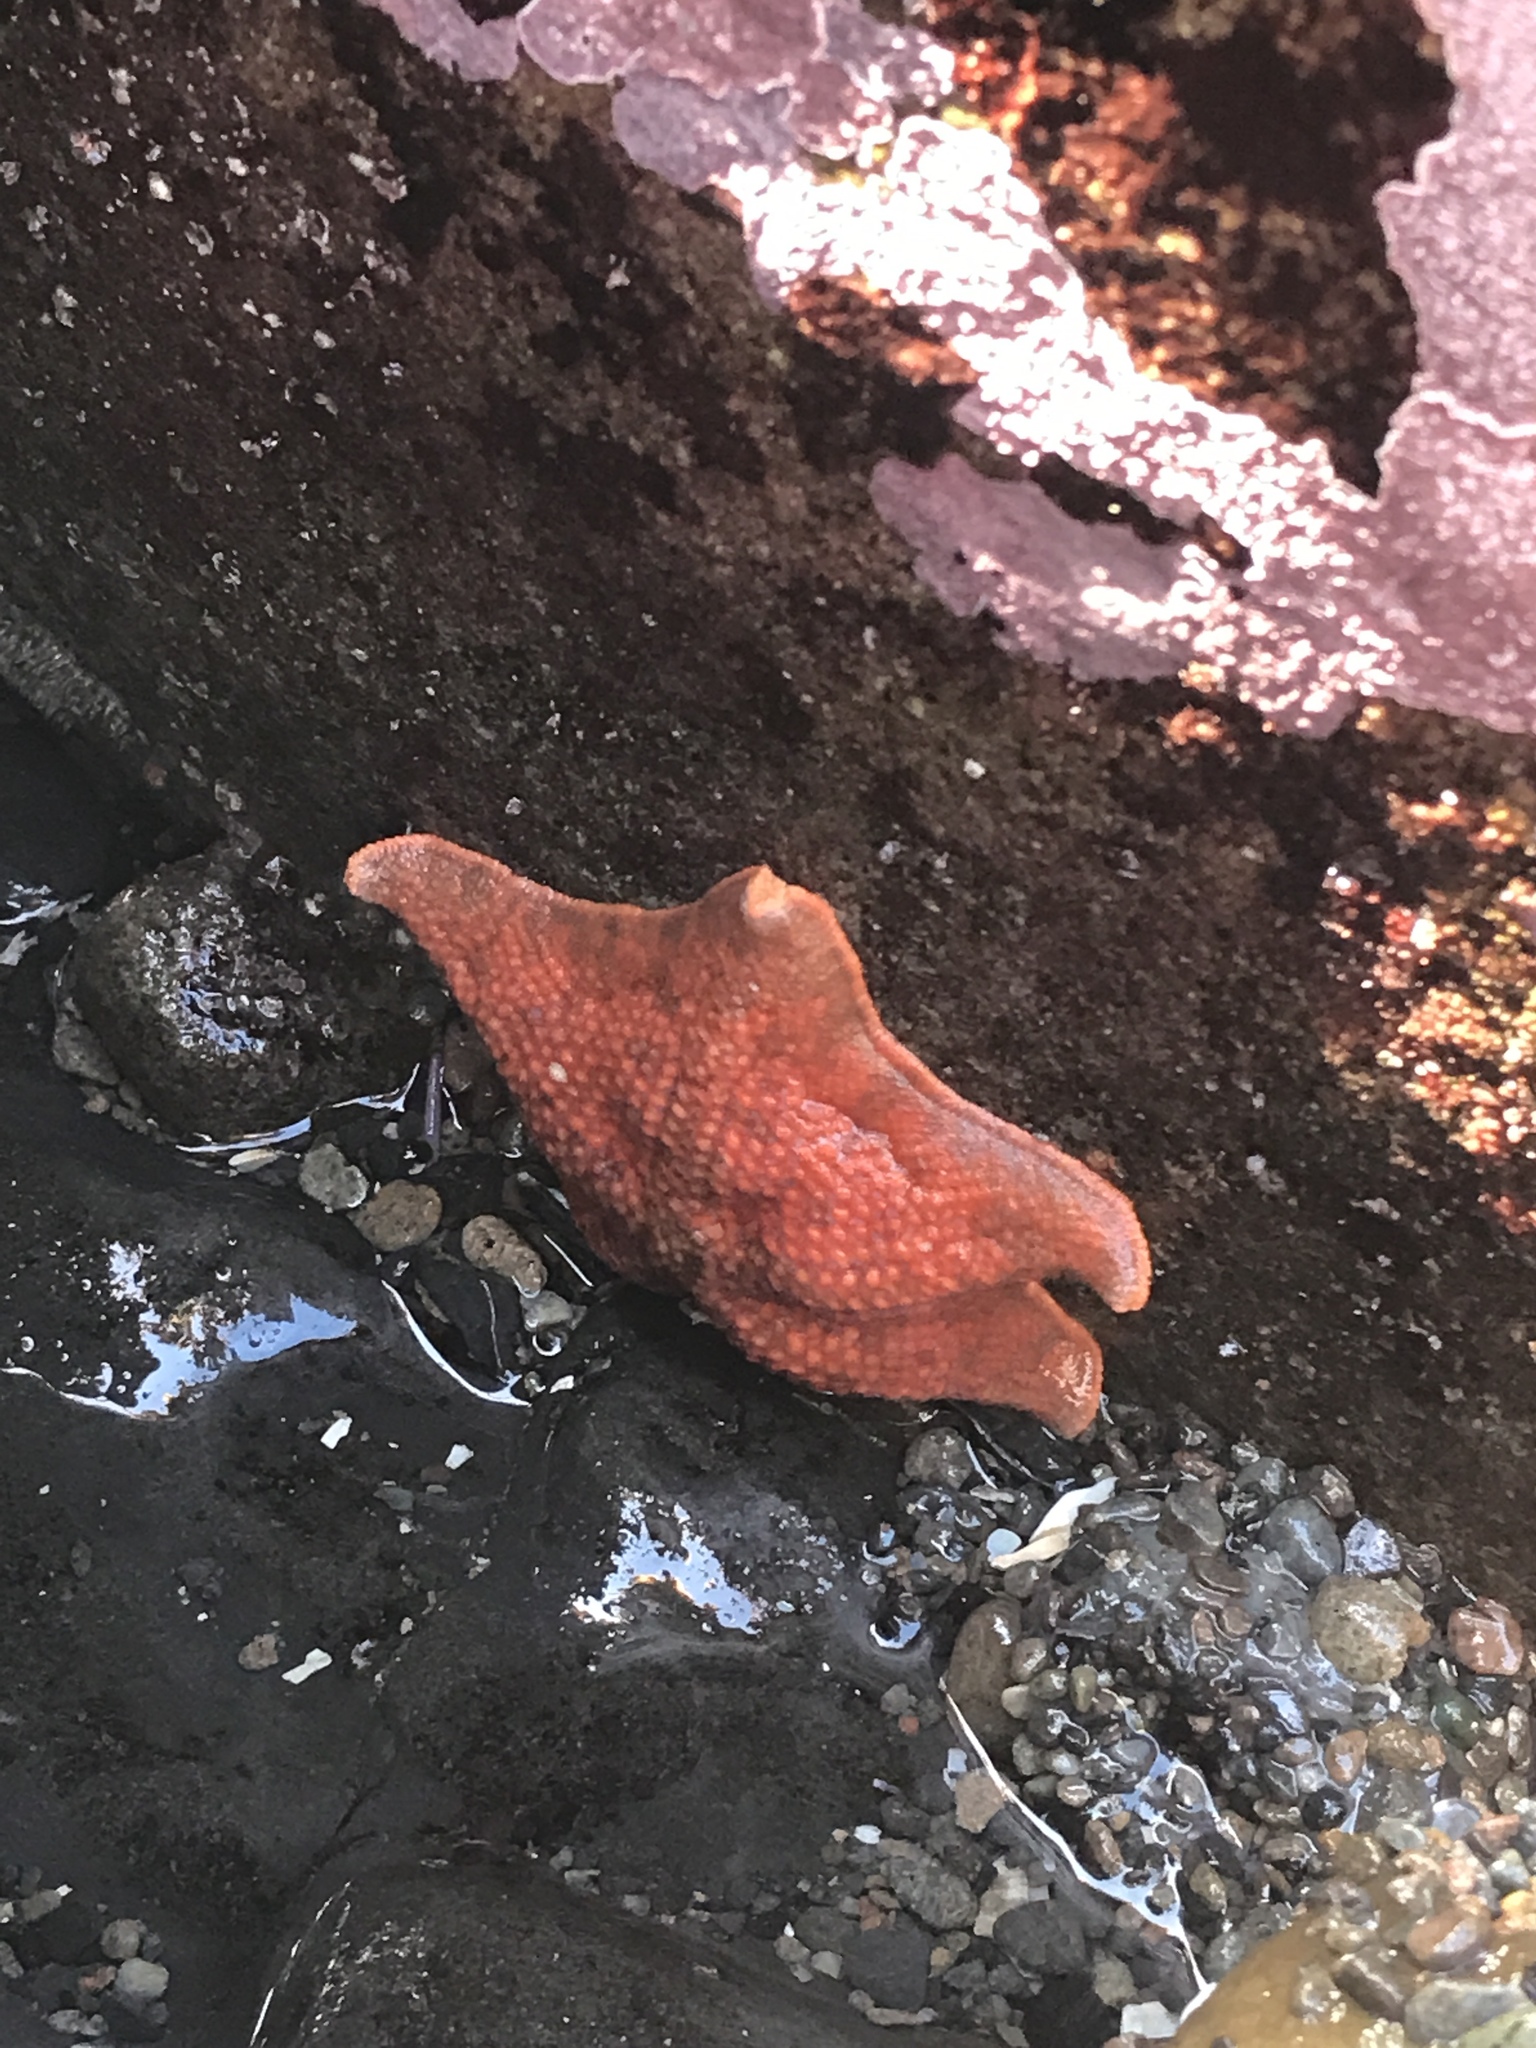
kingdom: Animalia
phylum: Echinodermata
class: Asteroidea
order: Valvatida
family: Asterinidae
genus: Patiria
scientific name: Patiria miniata
